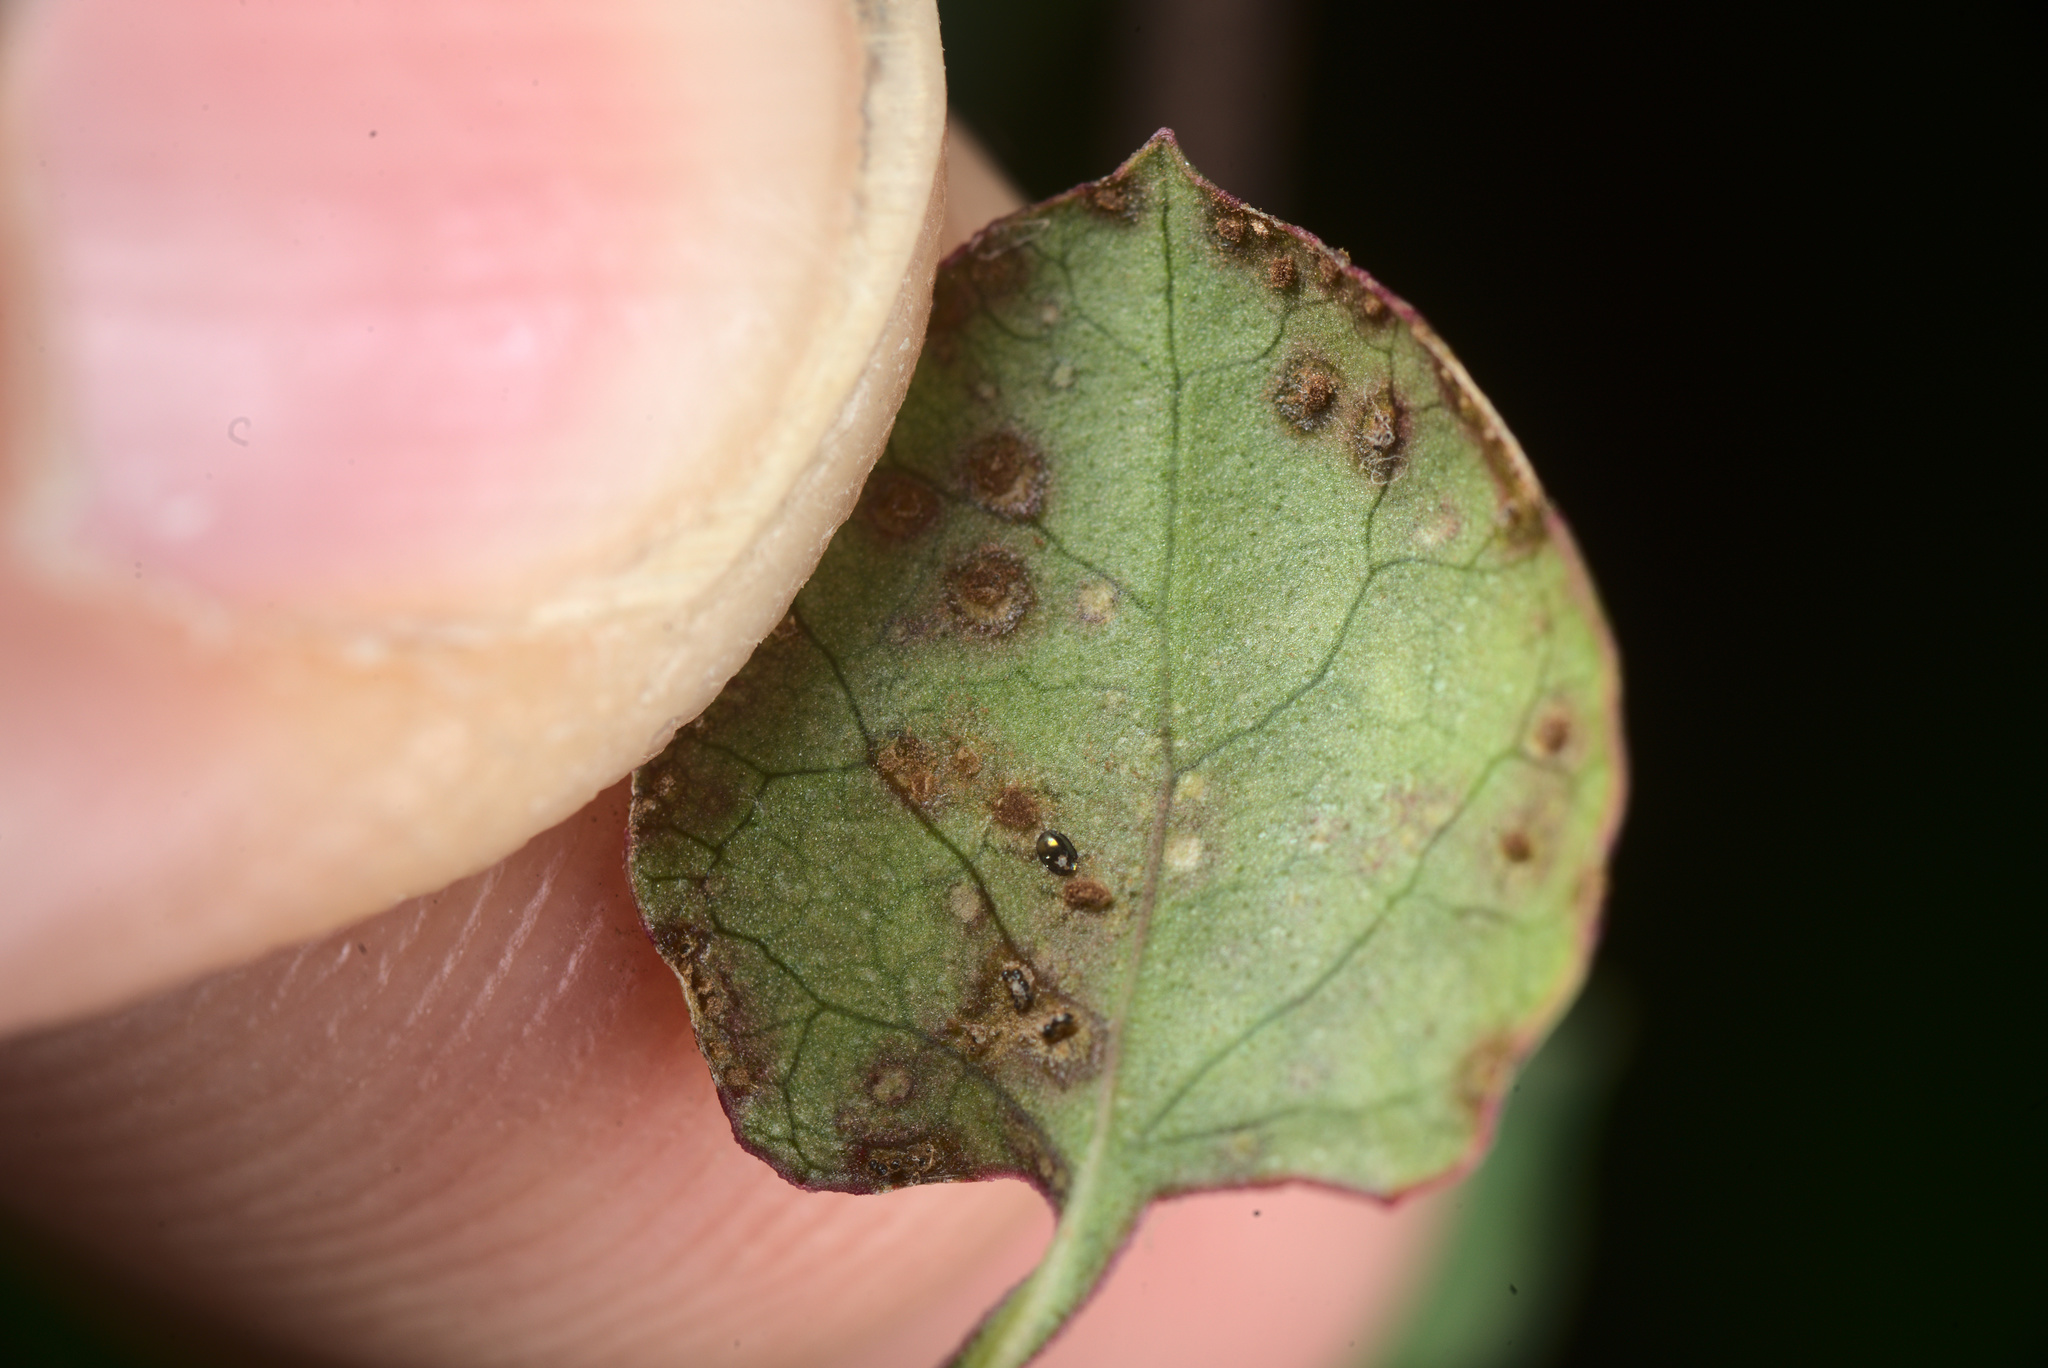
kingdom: Fungi
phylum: Basidiomycota
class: Pucciniomycetes
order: Pucciniales
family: Pucciniaceae
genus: Puccinia
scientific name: Puccinia otagensis
